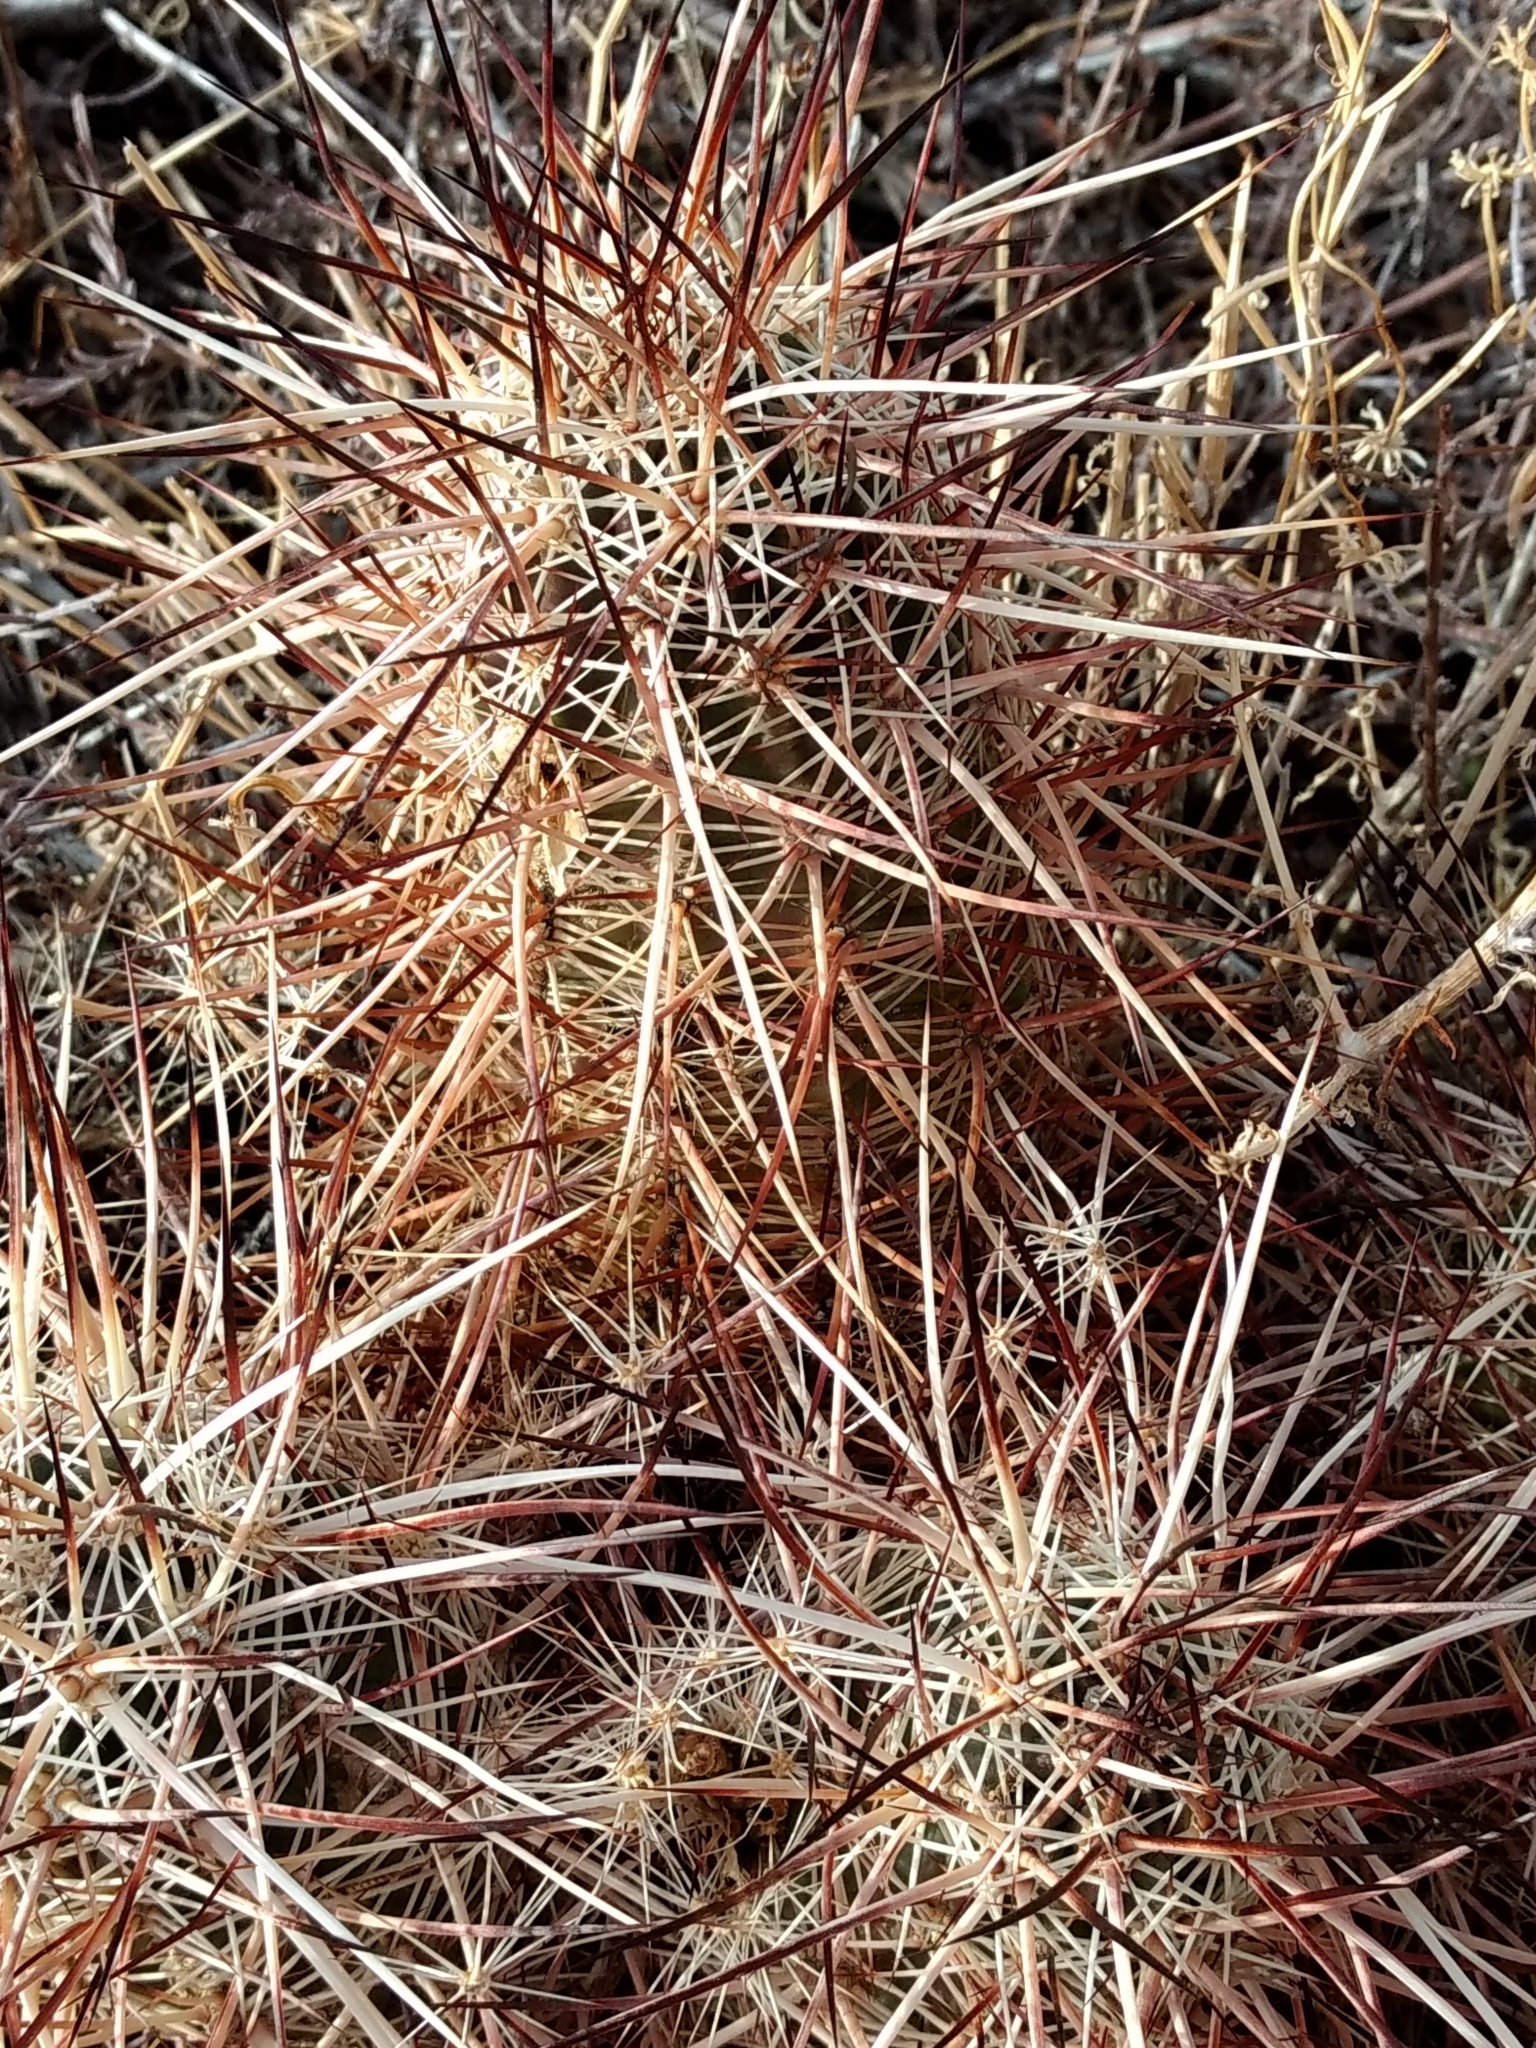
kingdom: Plantae
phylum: Tracheophyta
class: Magnoliopsida
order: Caryophyllales
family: Cactaceae
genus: Echinocereus
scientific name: Echinocereus engelmannii
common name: Engelmann's hedgehog cactus
